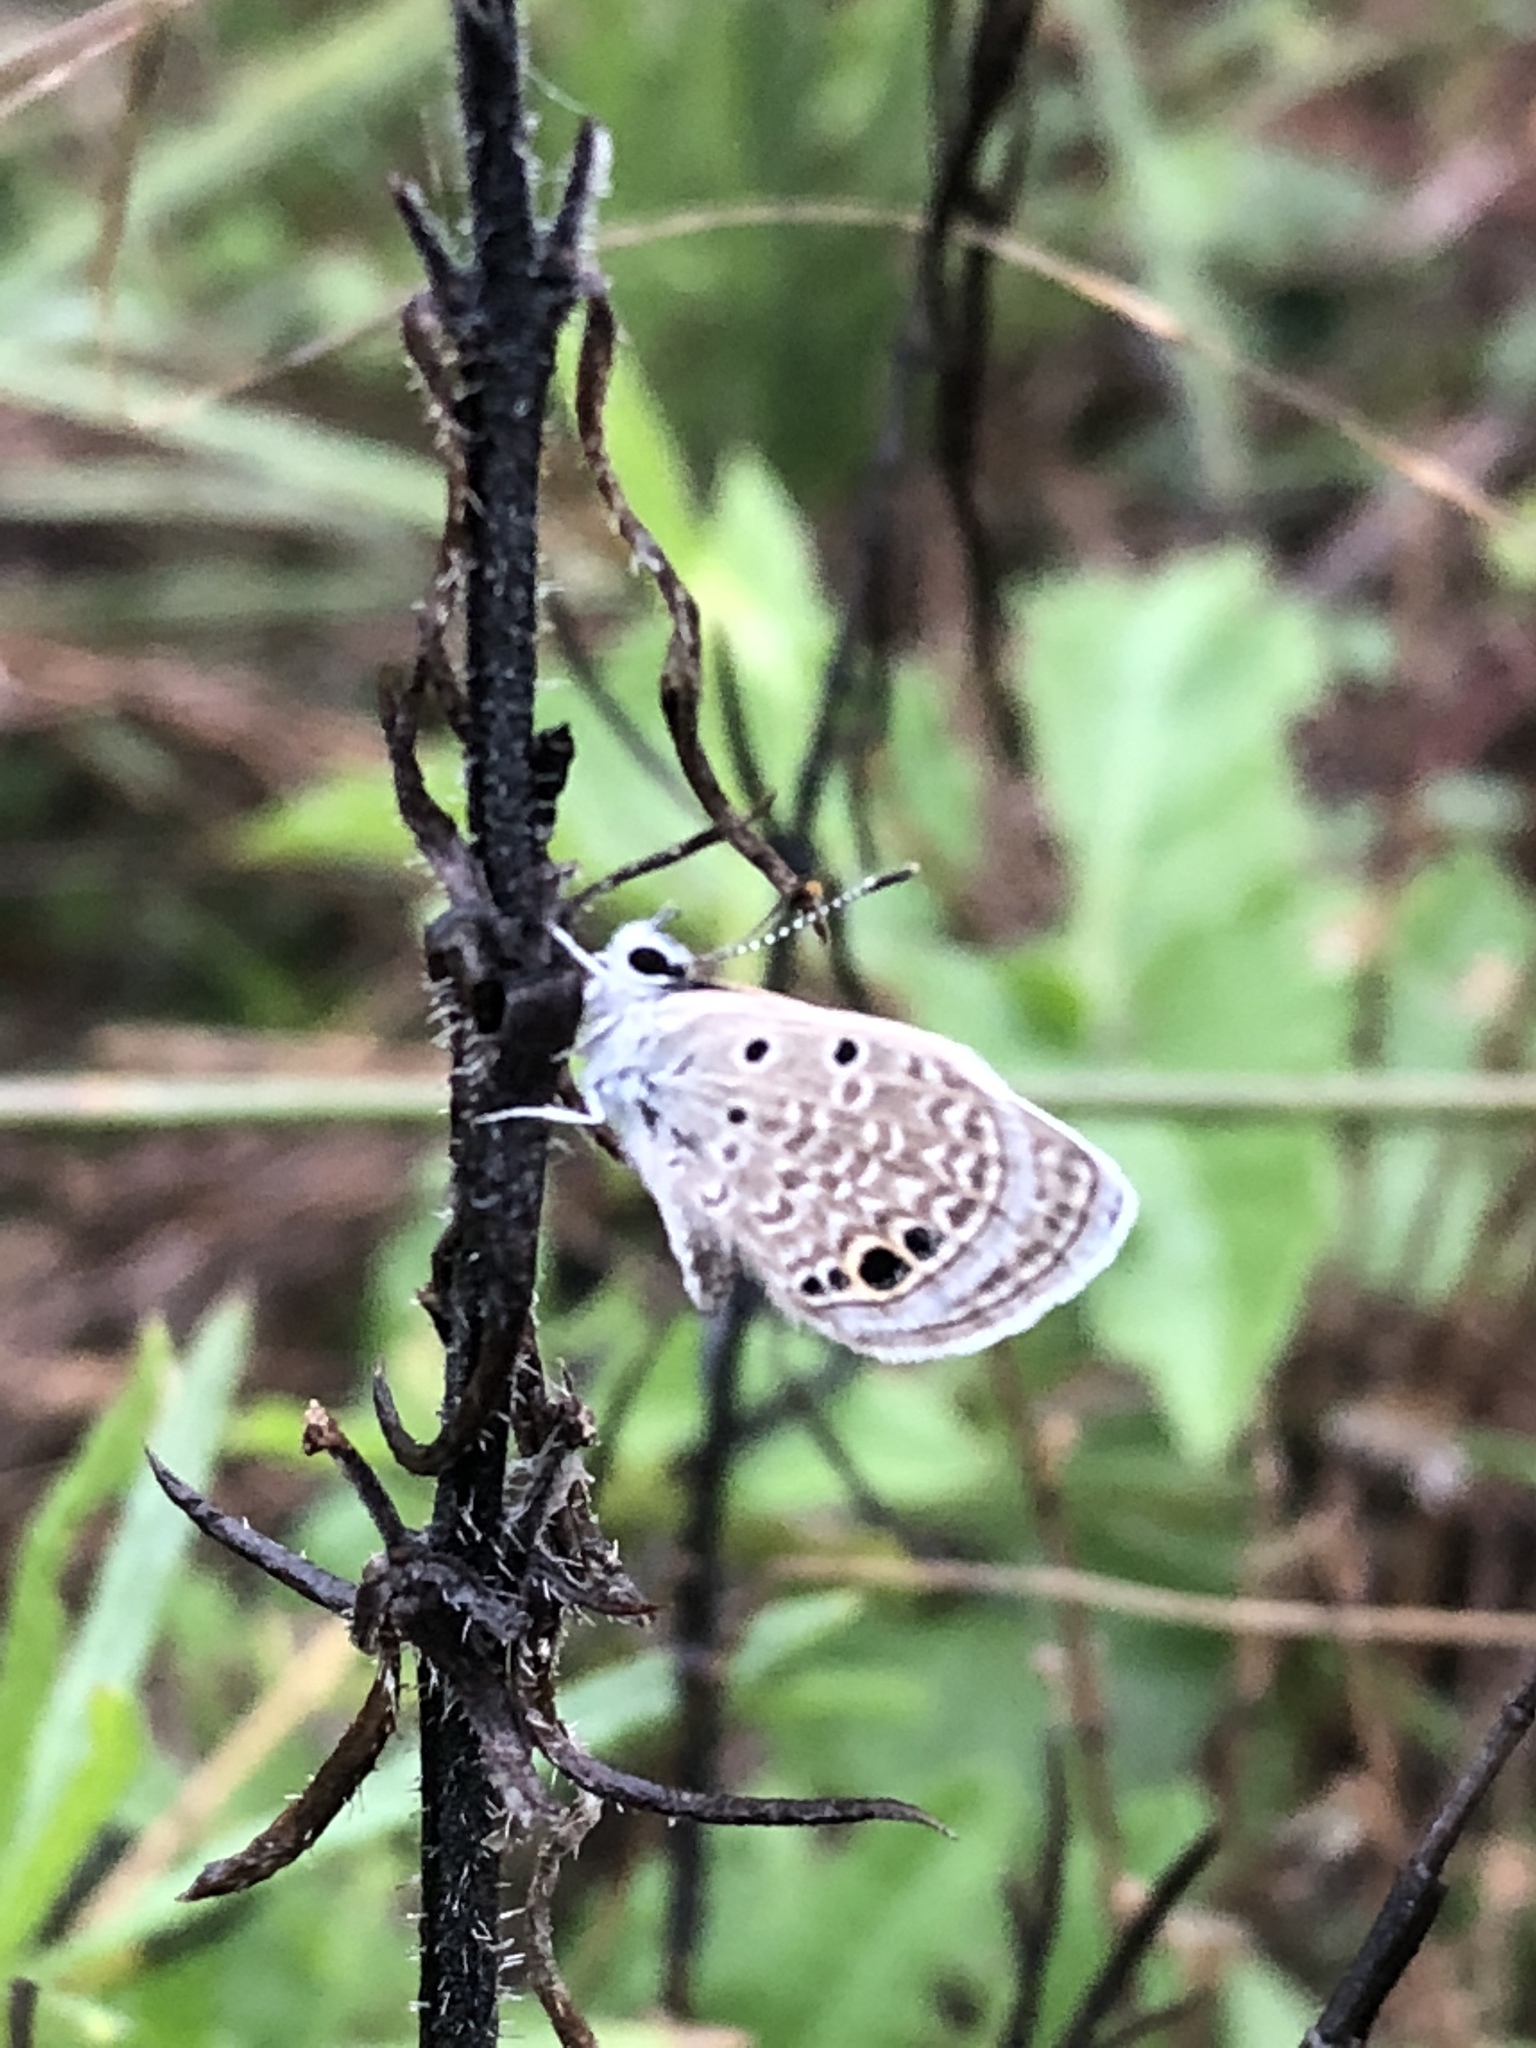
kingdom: Animalia
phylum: Arthropoda
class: Insecta
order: Lepidoptera
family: Lycaenidae
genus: Echinargus
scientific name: Echinargus isola
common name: Reakirt's blue
